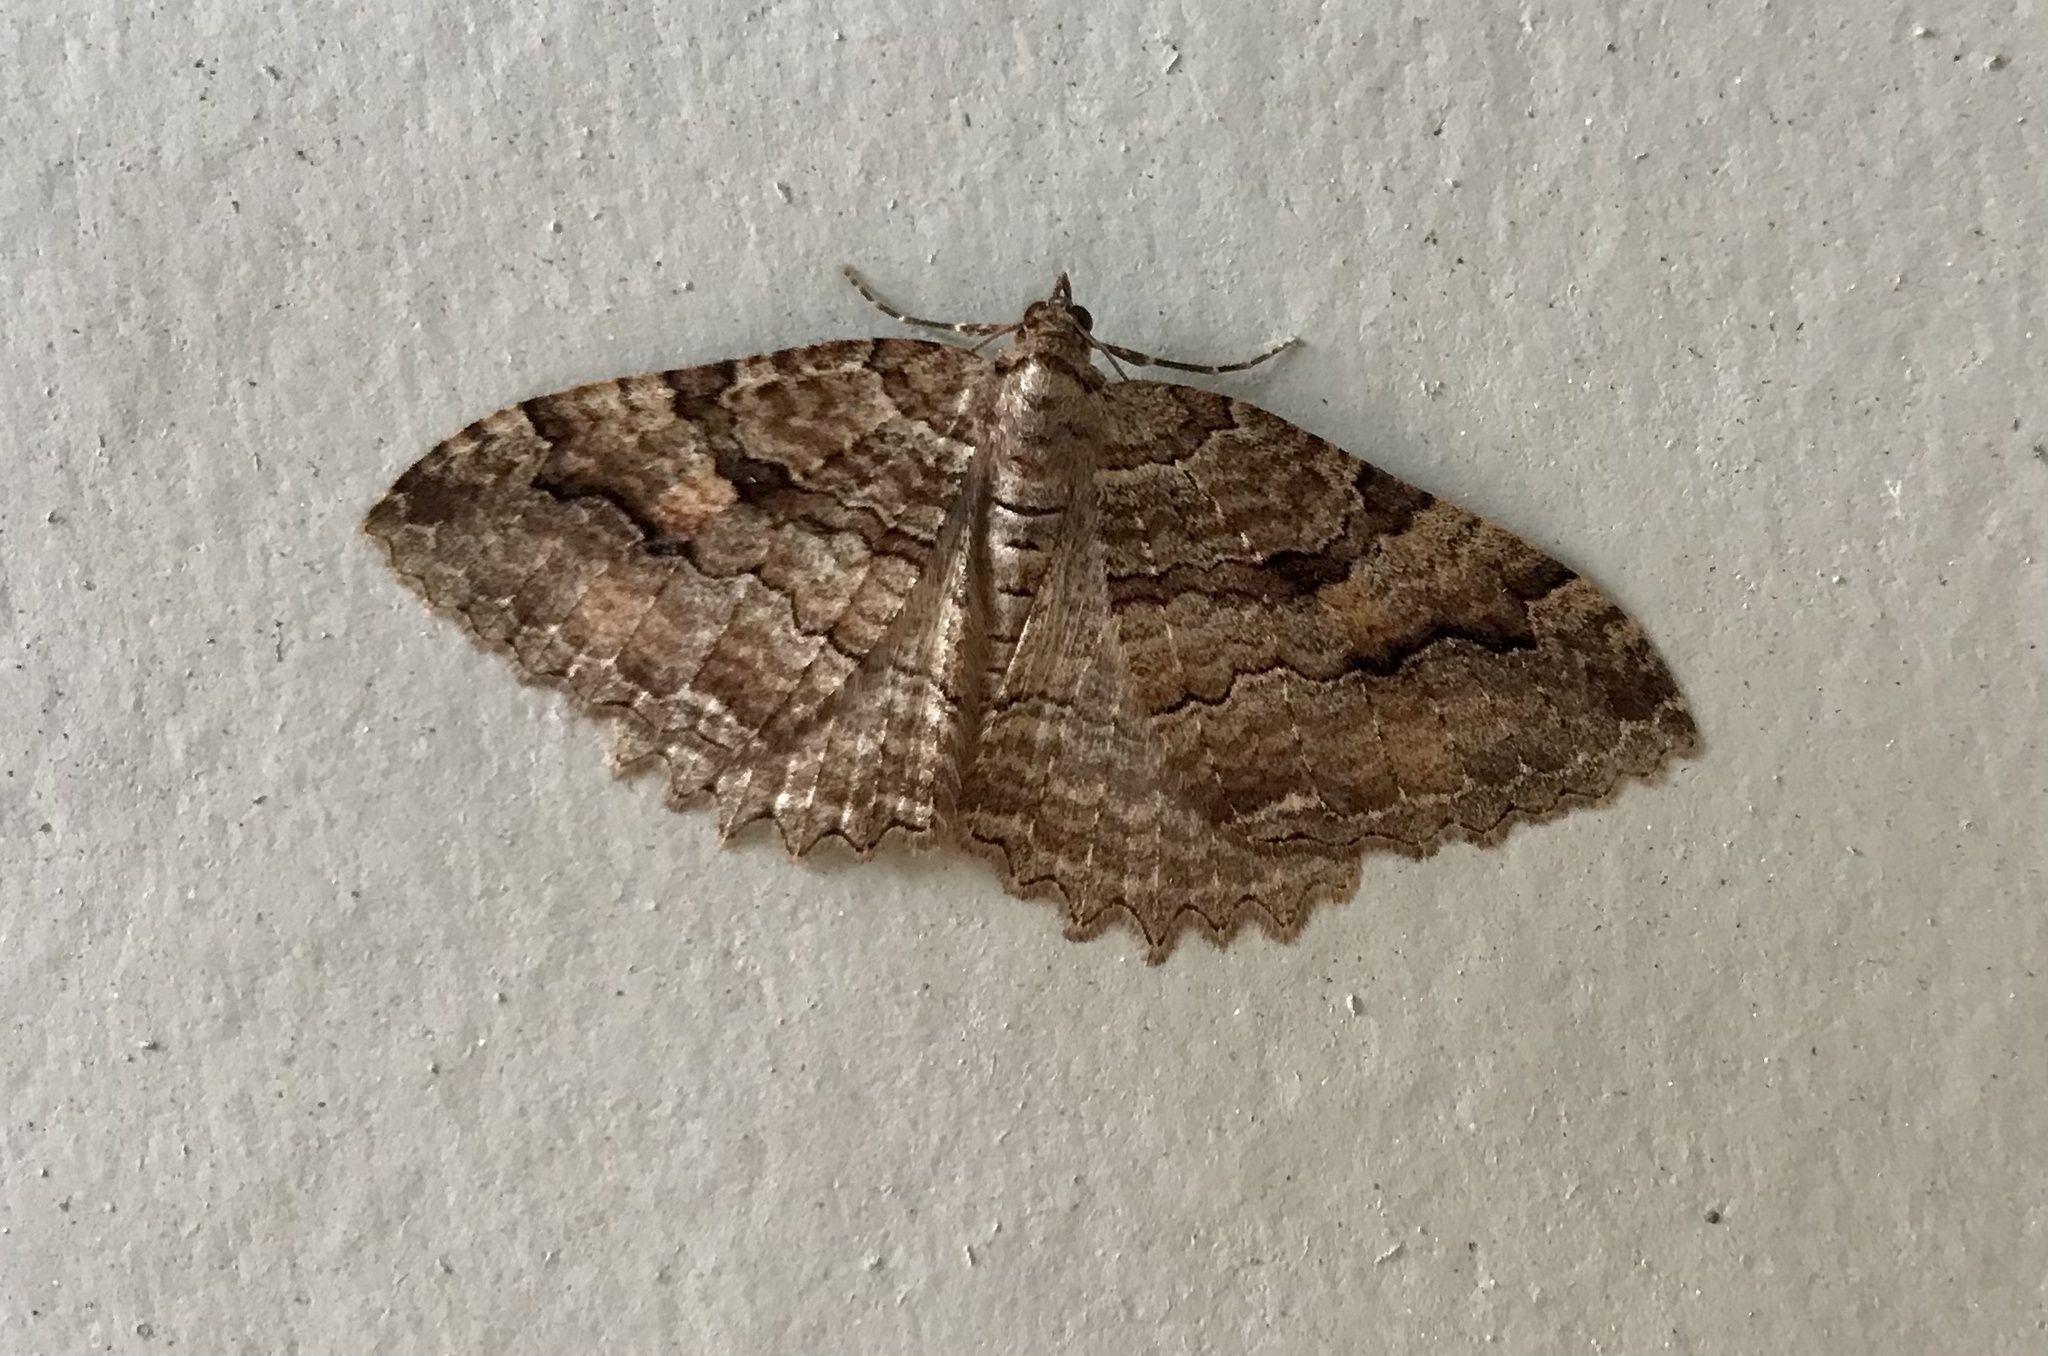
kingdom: Animalia
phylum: Arthropoda
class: Insecta
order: Lepidoptera
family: Geometridae
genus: Triphosa
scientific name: Triphosa haesitata
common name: Tissue moth
